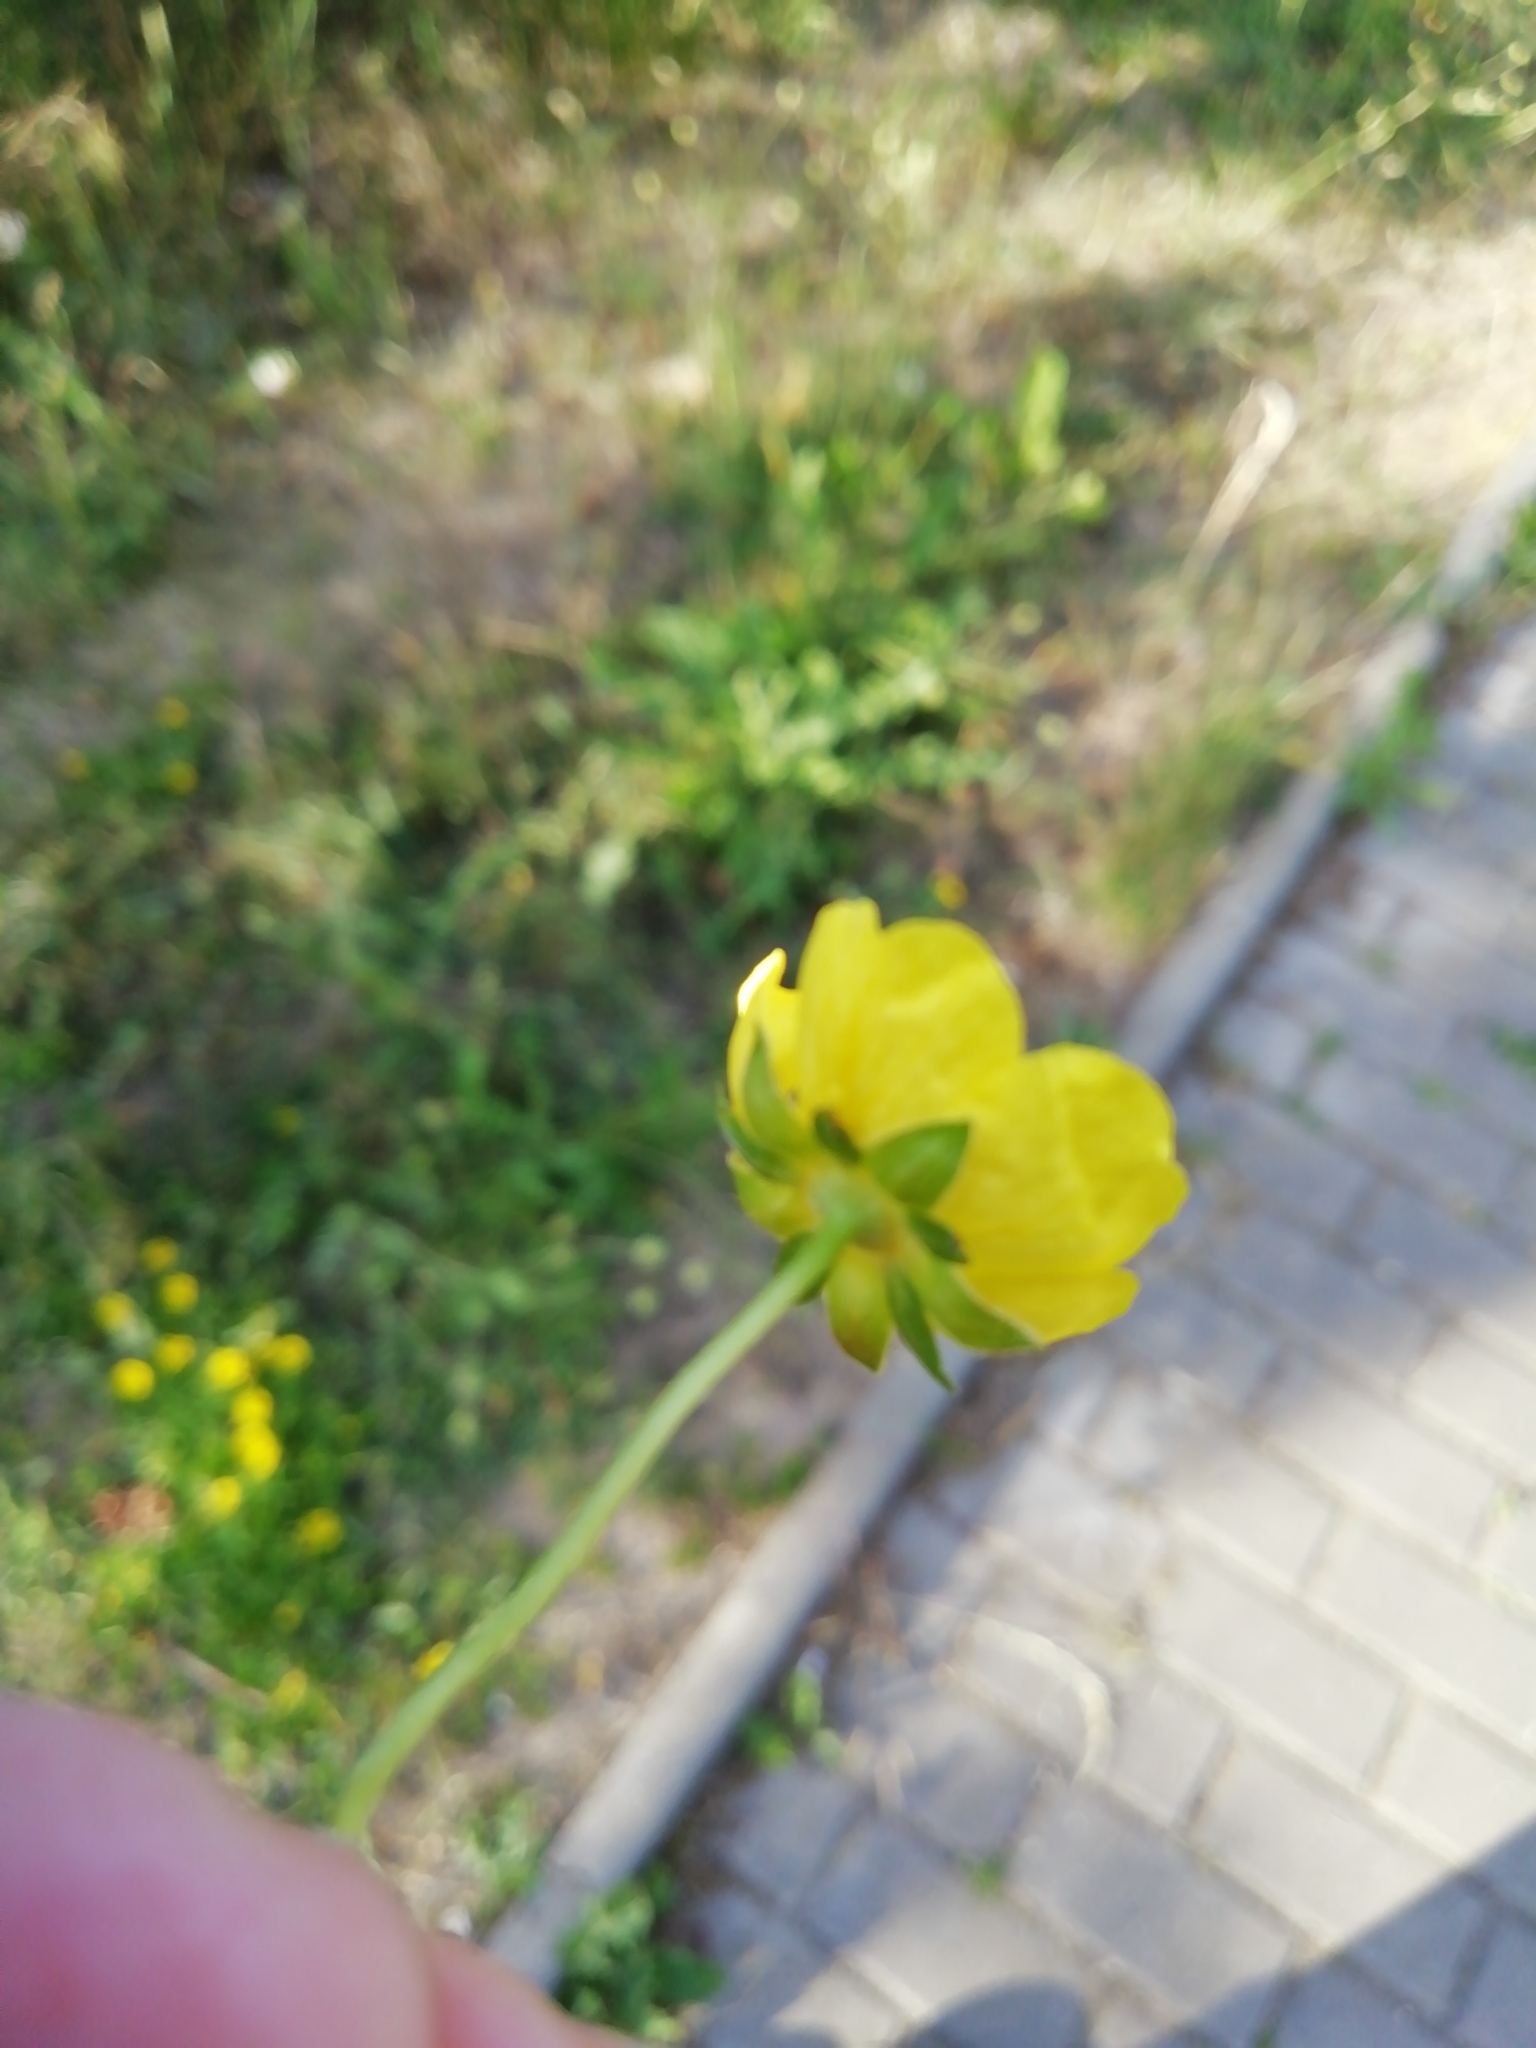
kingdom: Plantae
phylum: Tracheophyta
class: Magnoliopsida
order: Rosales
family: Rosaceae
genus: Potentilla
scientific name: Potentilla reptans
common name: Creeping cinquefoil
